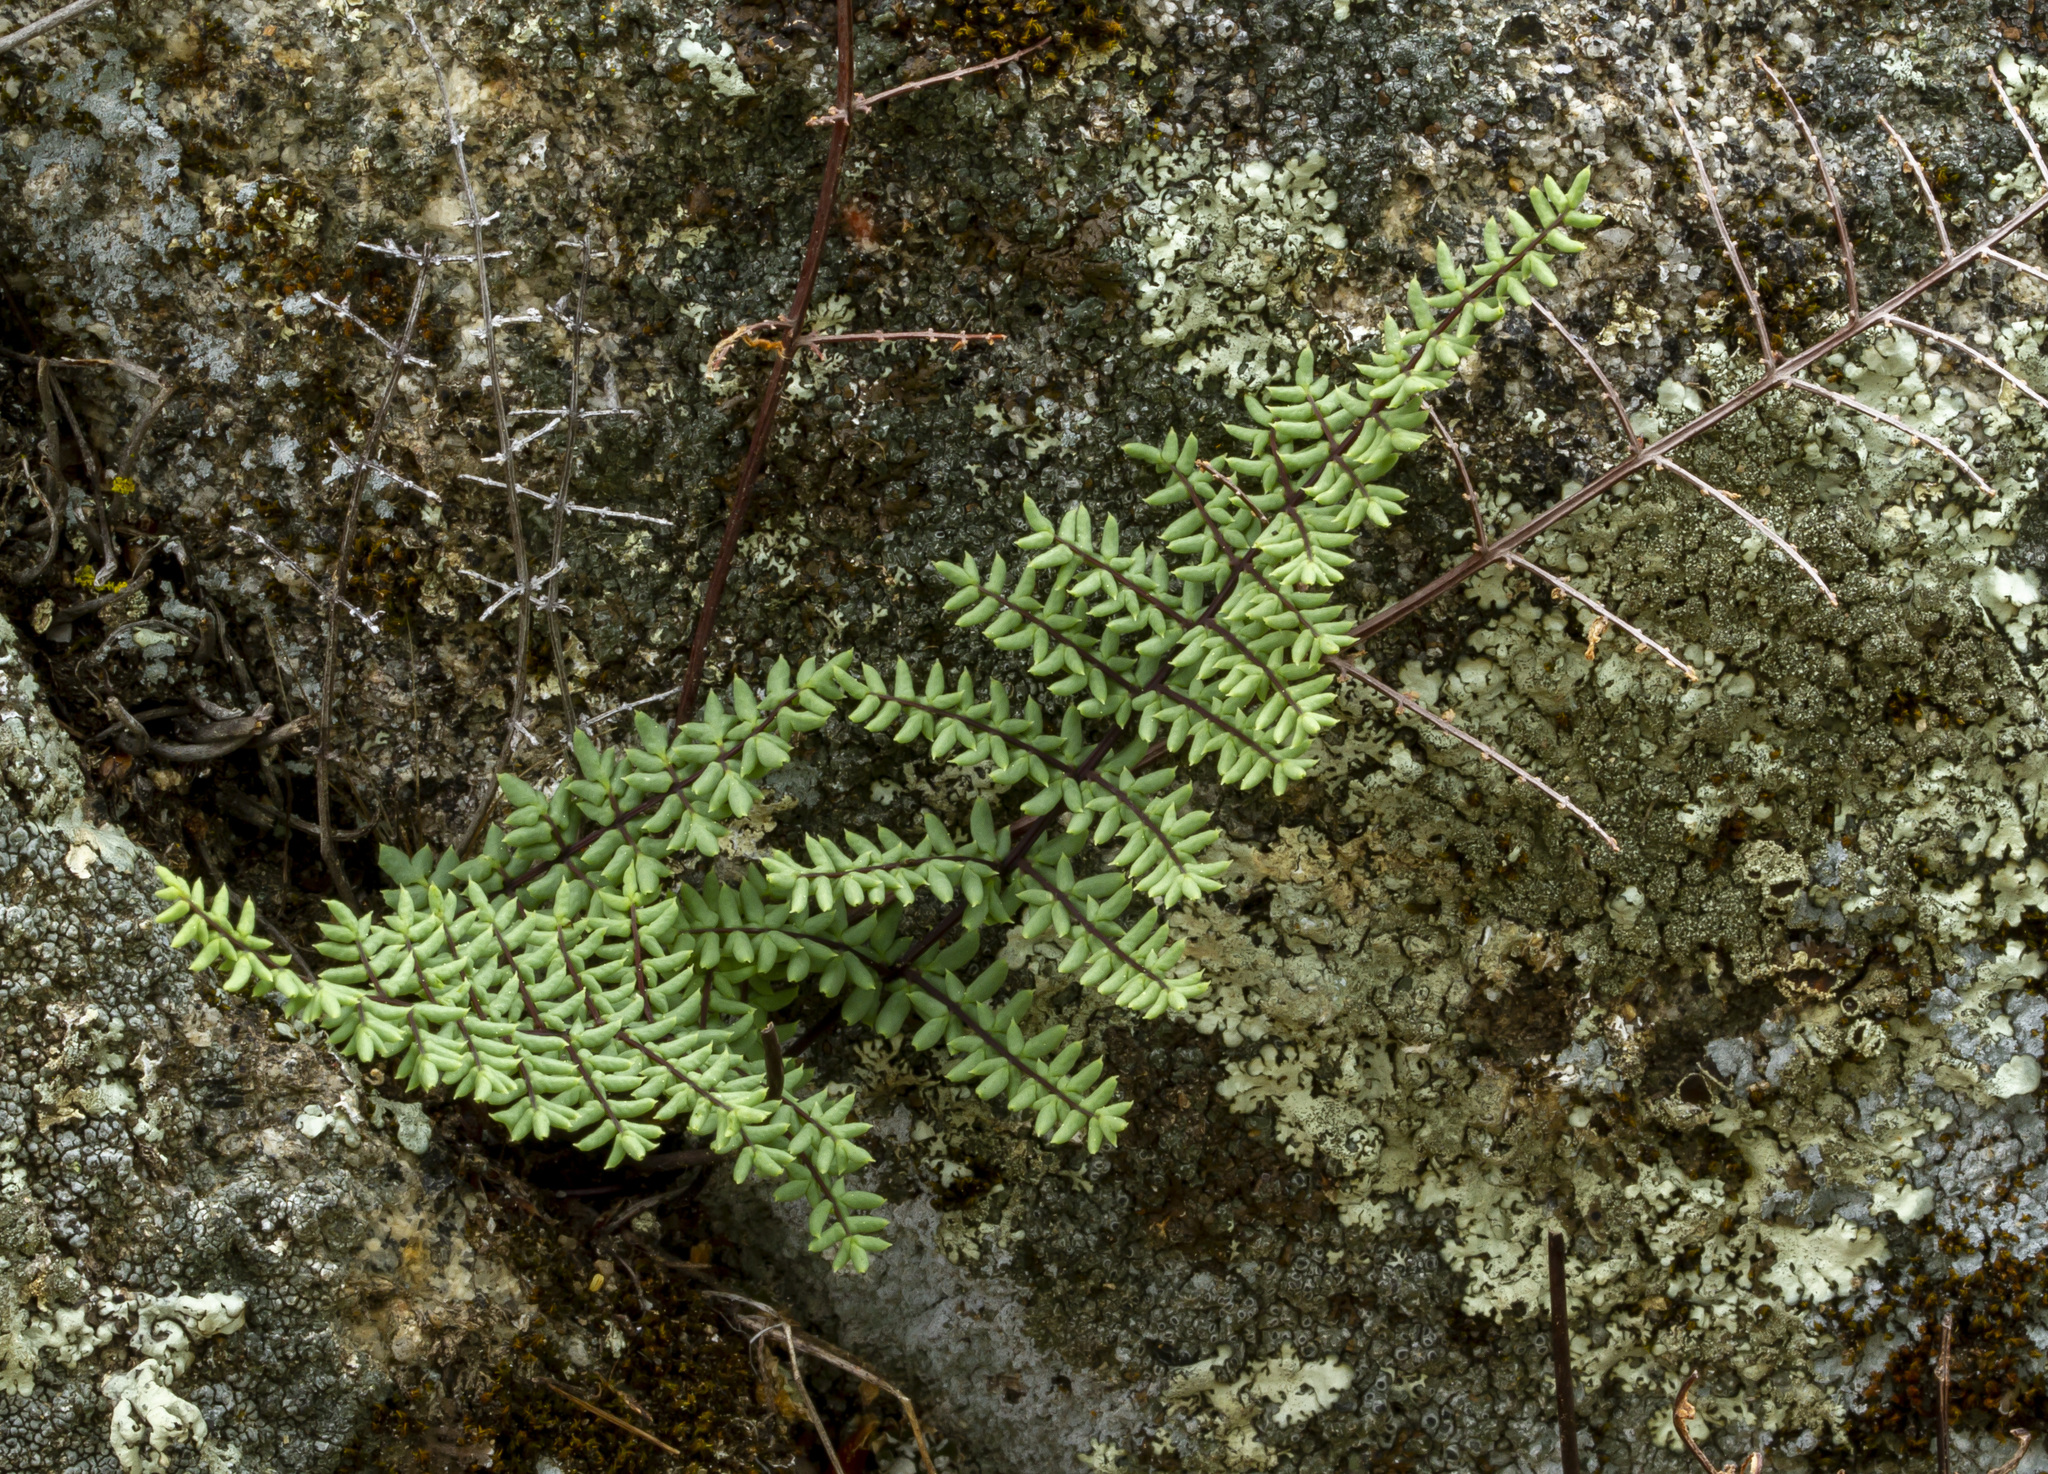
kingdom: Plantae
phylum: Tracheophyta
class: Polypodiopsida
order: Polypodiales
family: Pteridaceae
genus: Pellaea
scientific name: Pellaea mucronata
